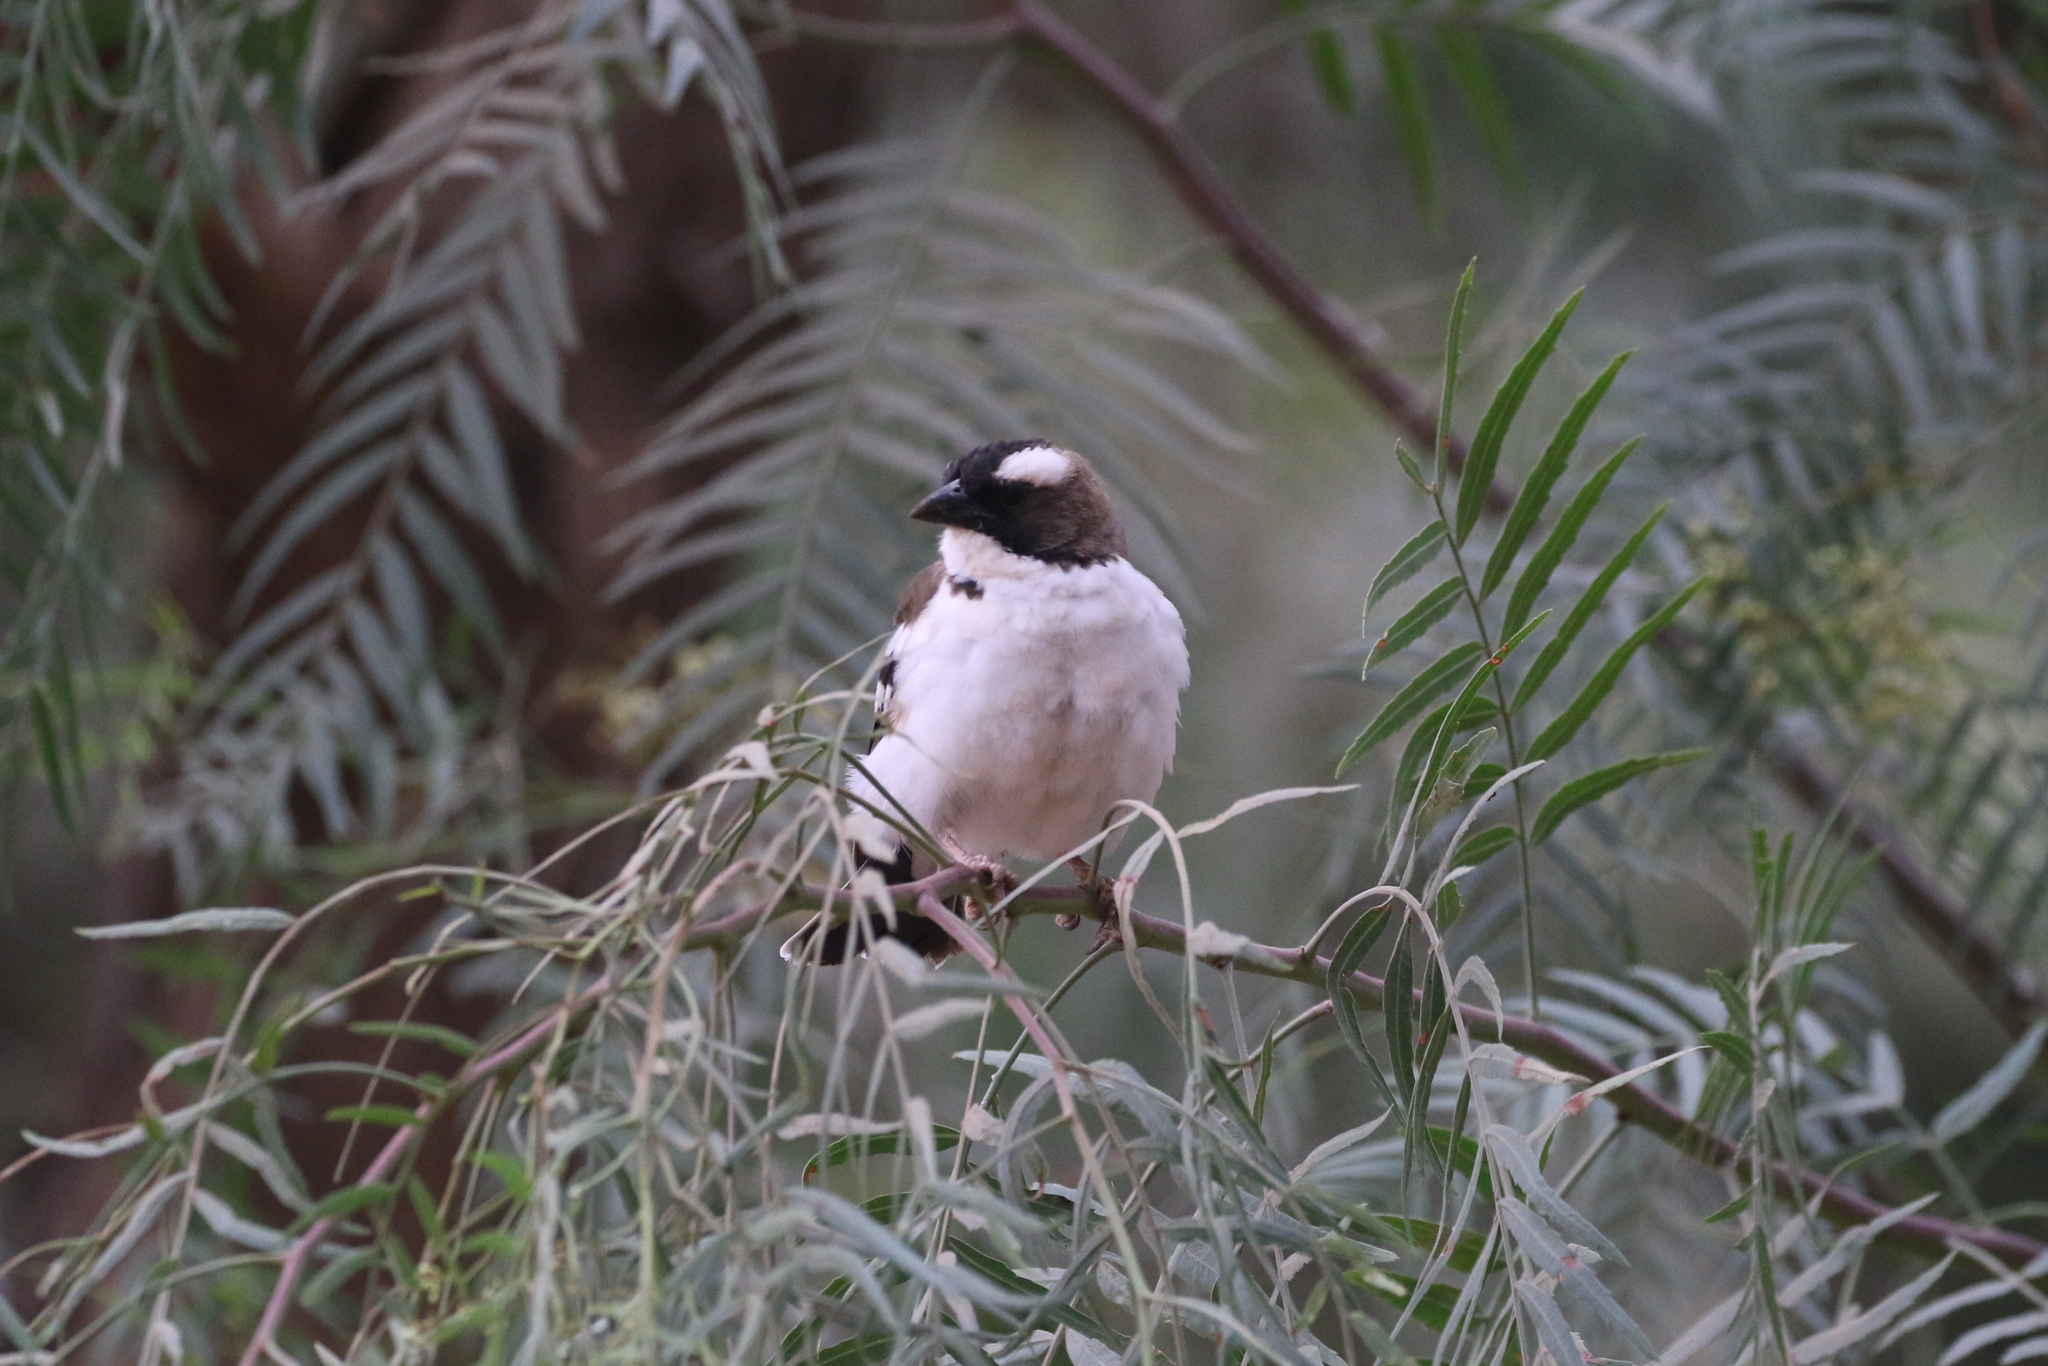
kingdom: Animalia
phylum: Chordata
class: Aves
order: Passeriformes
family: Passeridae
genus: Plocepasser
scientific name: Plocepasser mahali
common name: White-browed sparrow-weaver
